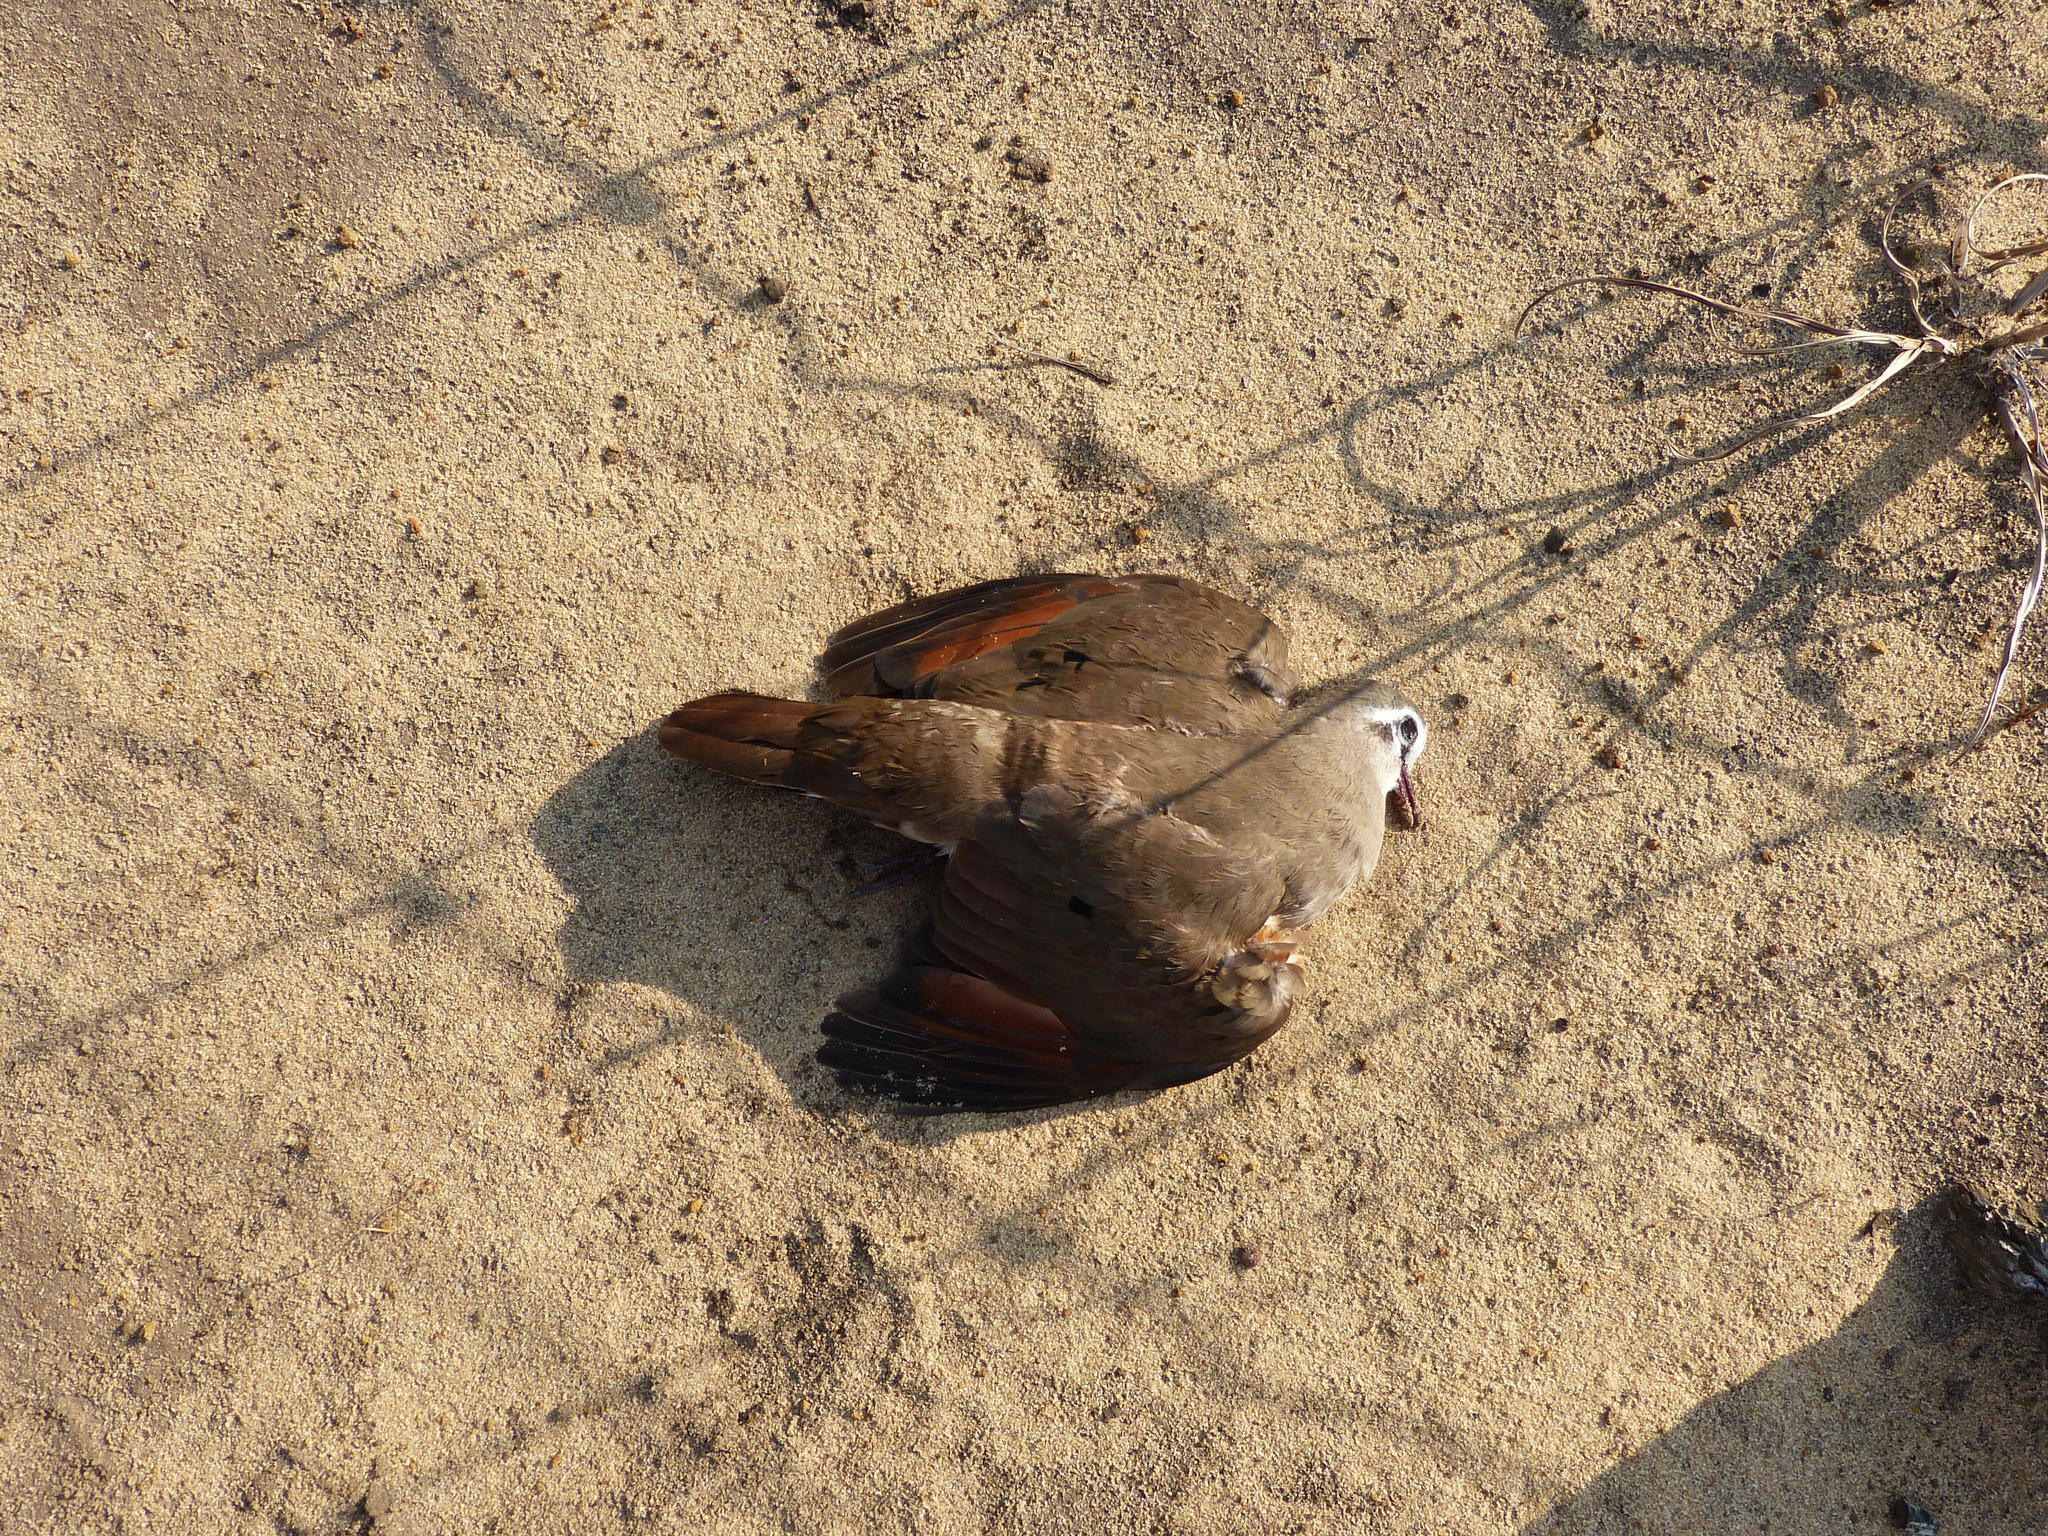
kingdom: Animalia
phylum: Chordata
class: Aves
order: Columbiformes
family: Columbidae
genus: Turtur
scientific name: Turtur tympanistria
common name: Tambourine dove
